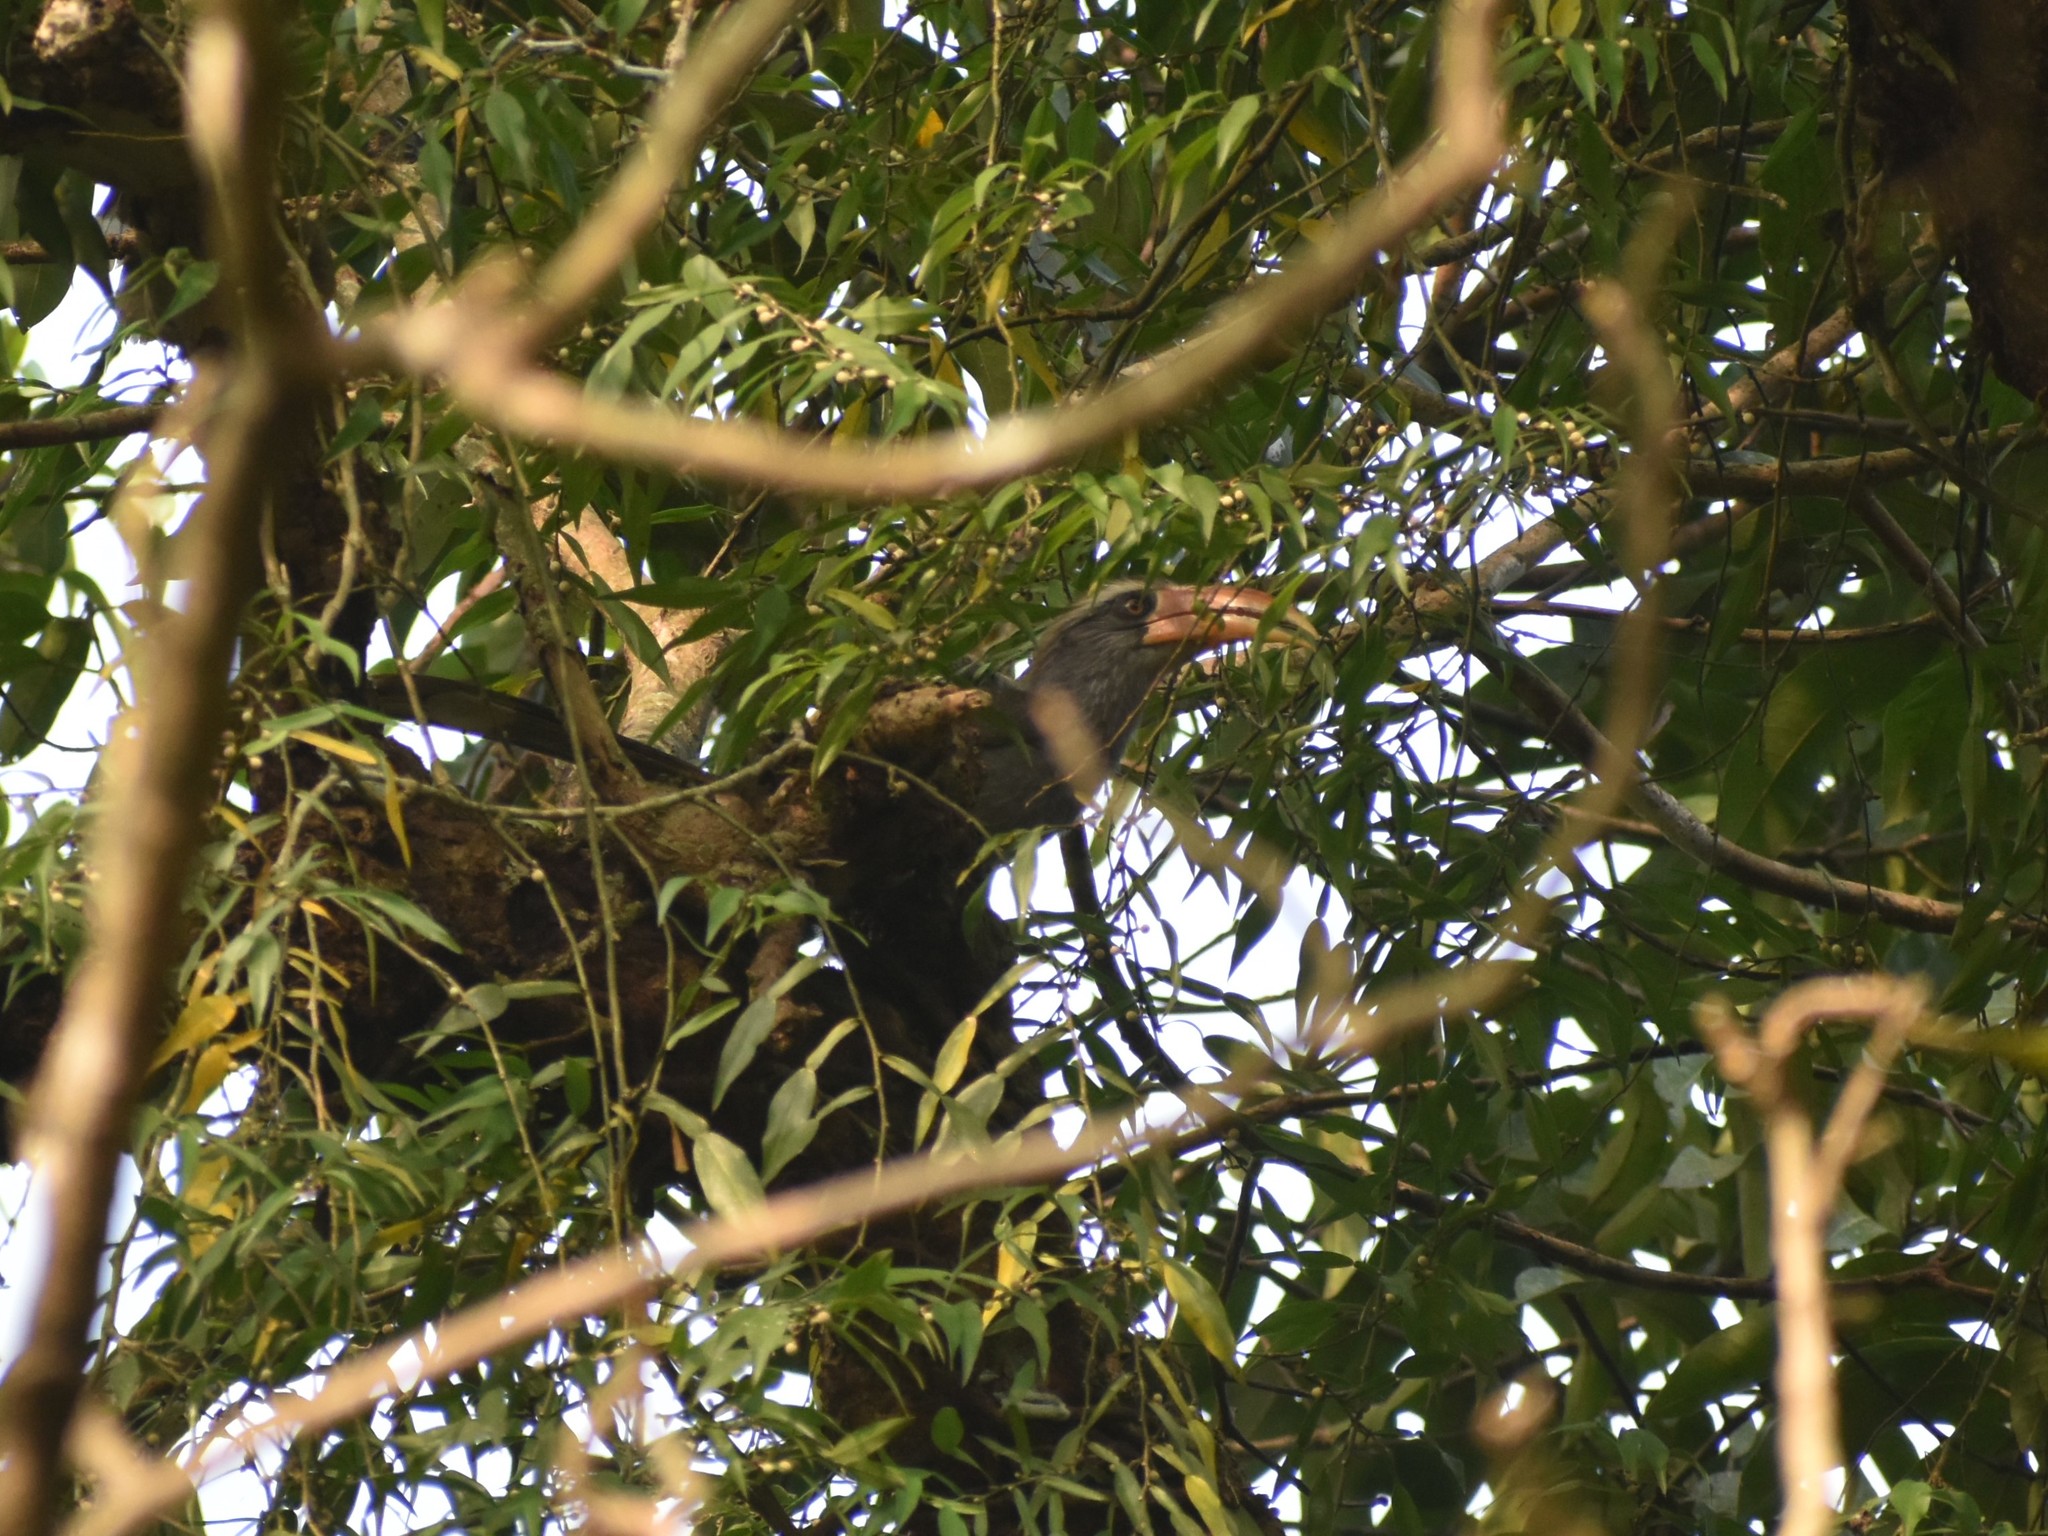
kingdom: Animalia
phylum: Chordata
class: Aves
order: Bucerotiformes
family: Bucerotidae
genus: Ocyceros
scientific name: Ocyceros griseus
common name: Malabar grey hornbill
